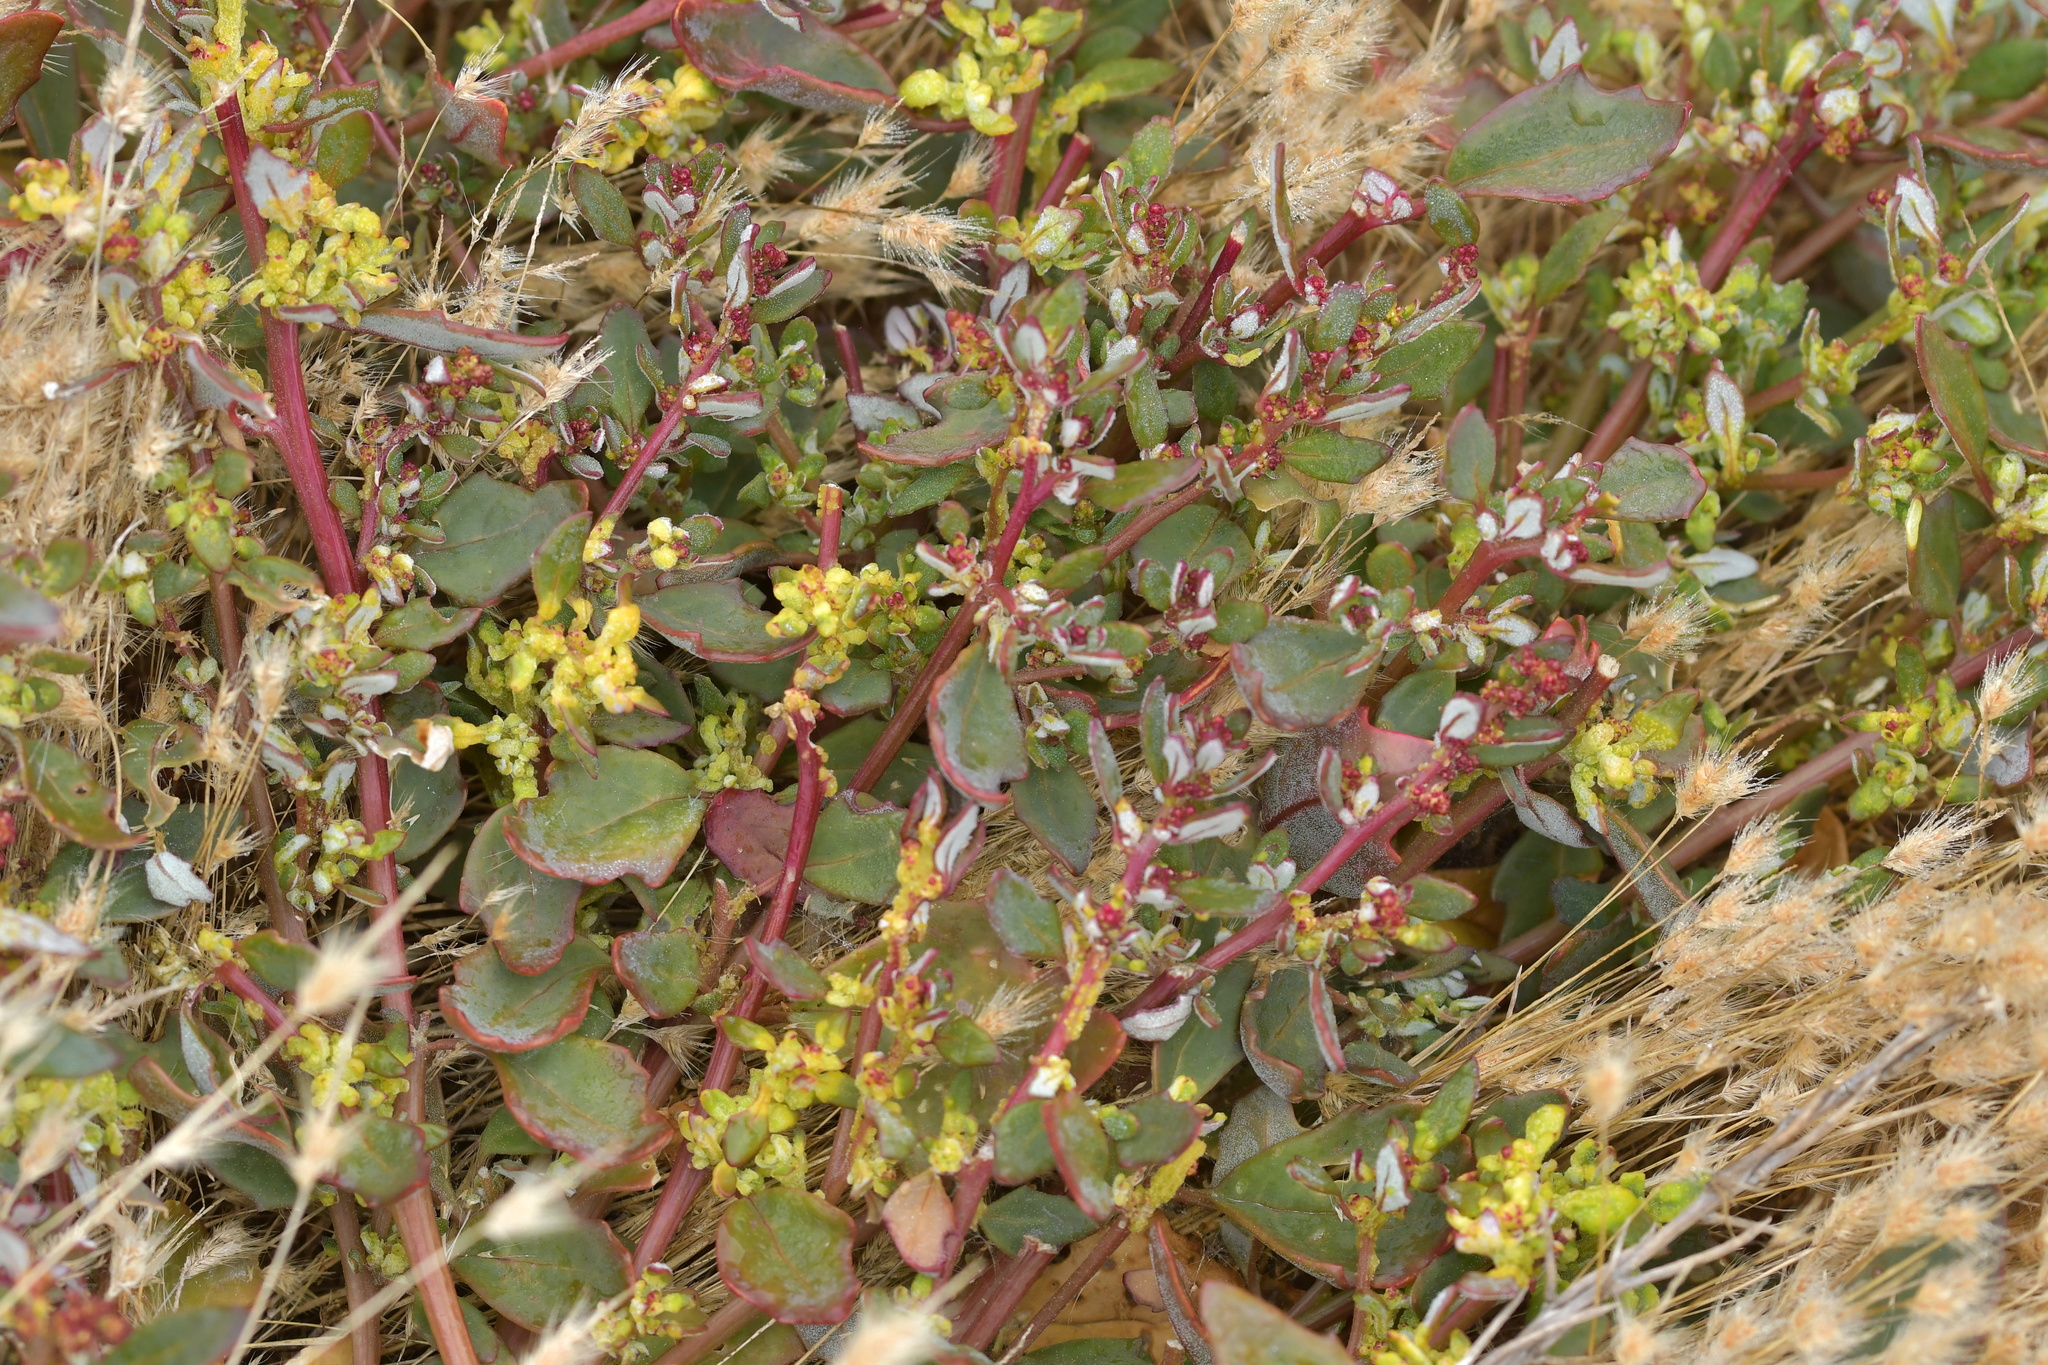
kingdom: Plantae
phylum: Tracheophyta
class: Magnoliopsida
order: Caryophyllales
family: Amaranthaceae
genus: Oxybasis
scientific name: Oxybasis ambigua
